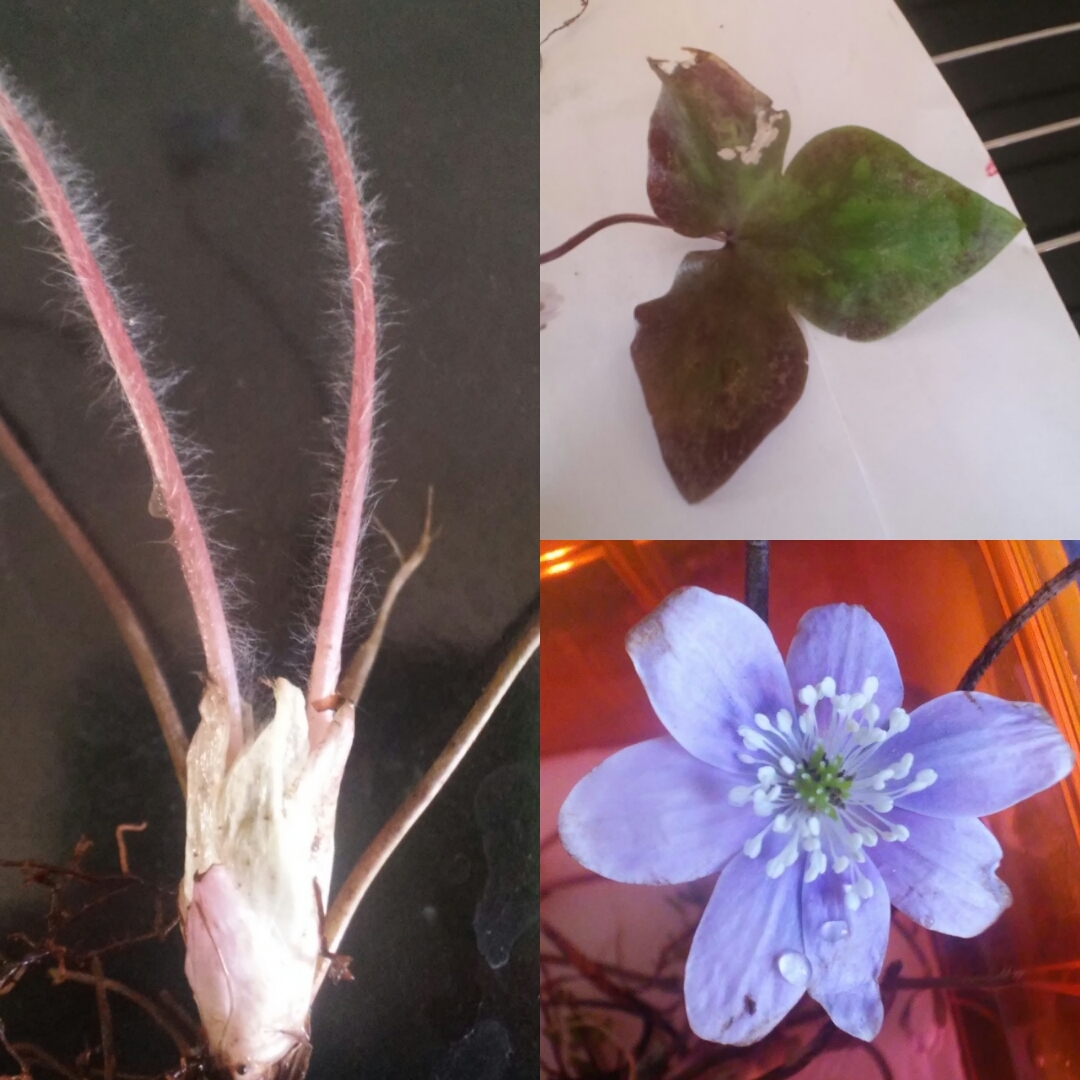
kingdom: Plantae
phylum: Tracheophyta
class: Magnoliopsida
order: Ranunculales
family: Ranunculaceae
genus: Hepatica
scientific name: Hepatica acutiloba
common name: Sharp-lobed hepatica
